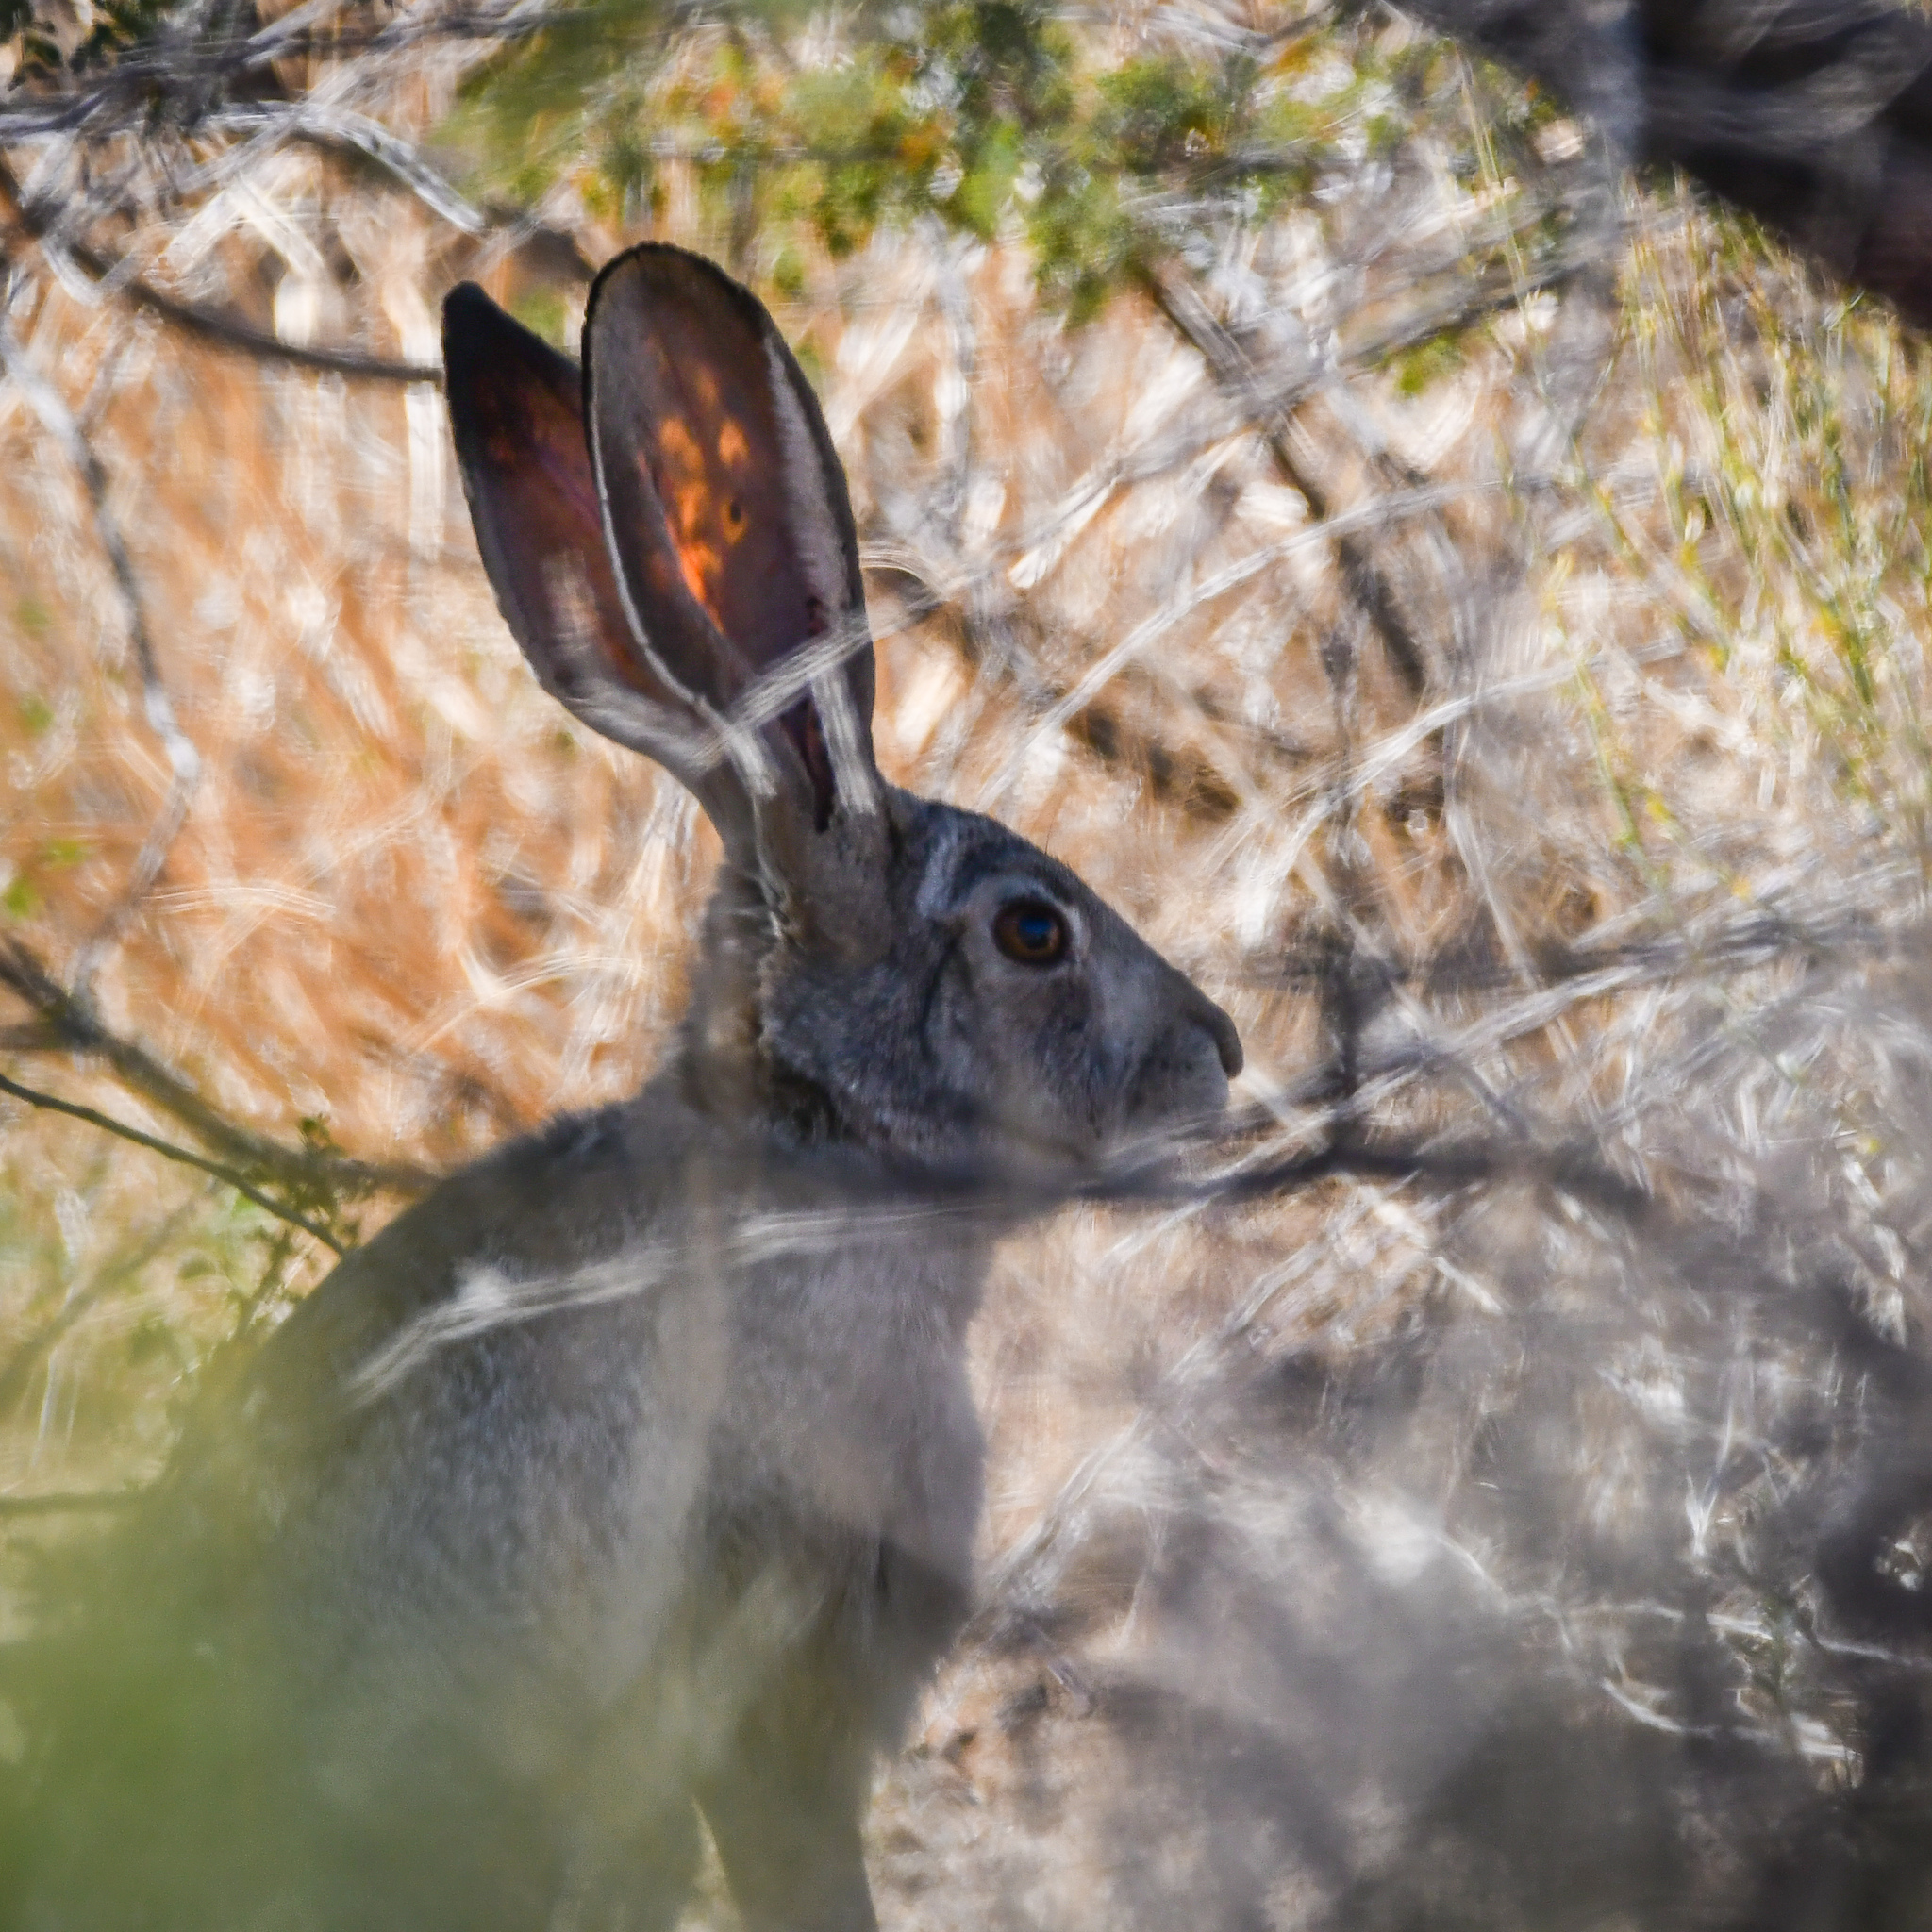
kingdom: Animalia
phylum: Chordata
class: Mammalia
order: Lagomorpha
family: Leporidae
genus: Lepus
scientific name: Lepus californicus
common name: Black-tailed jackrabbit
